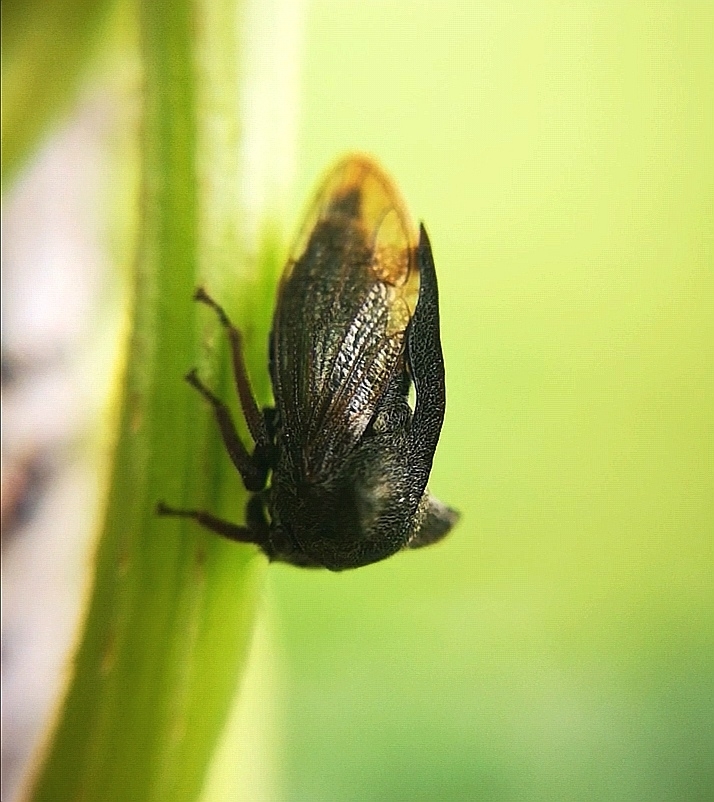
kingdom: Animalia
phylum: Arthropoda
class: Insecta
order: Hemiptera
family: Membracidae
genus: Centrotus
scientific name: Centrotus cornuta
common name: Treehopper
